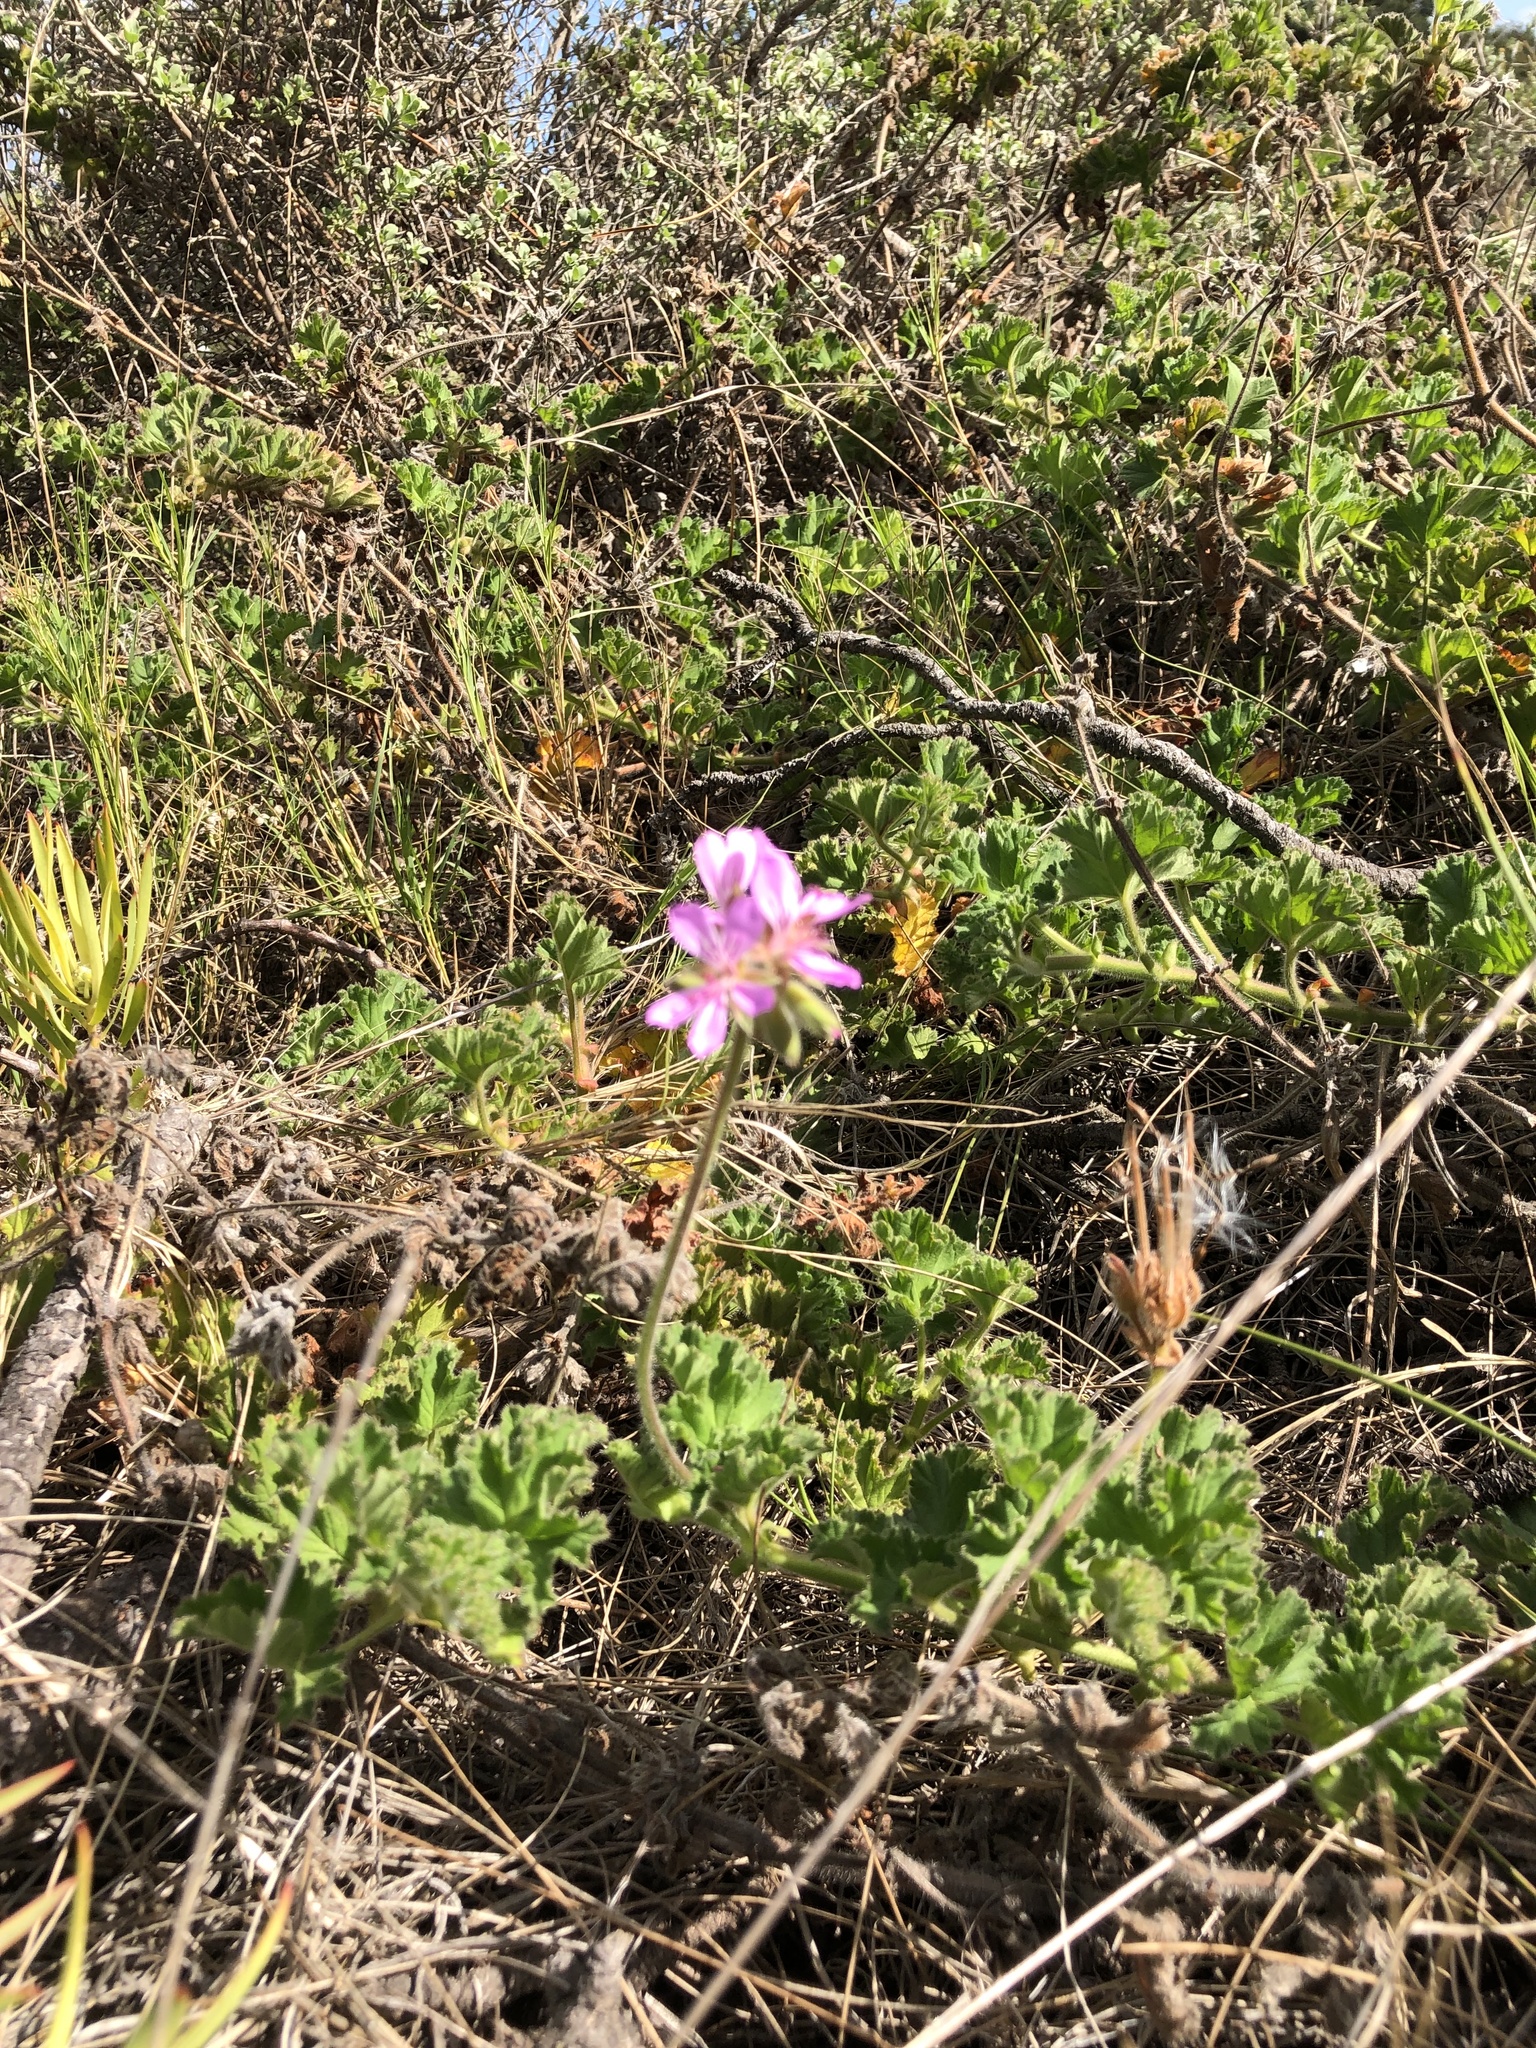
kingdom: Plantae
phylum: Tracheophyta
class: Magnoliopsida
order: Geraniales
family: Geraniaceae
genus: Pelargonium
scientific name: Pelargonium capitatum
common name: Rose scented geranium
